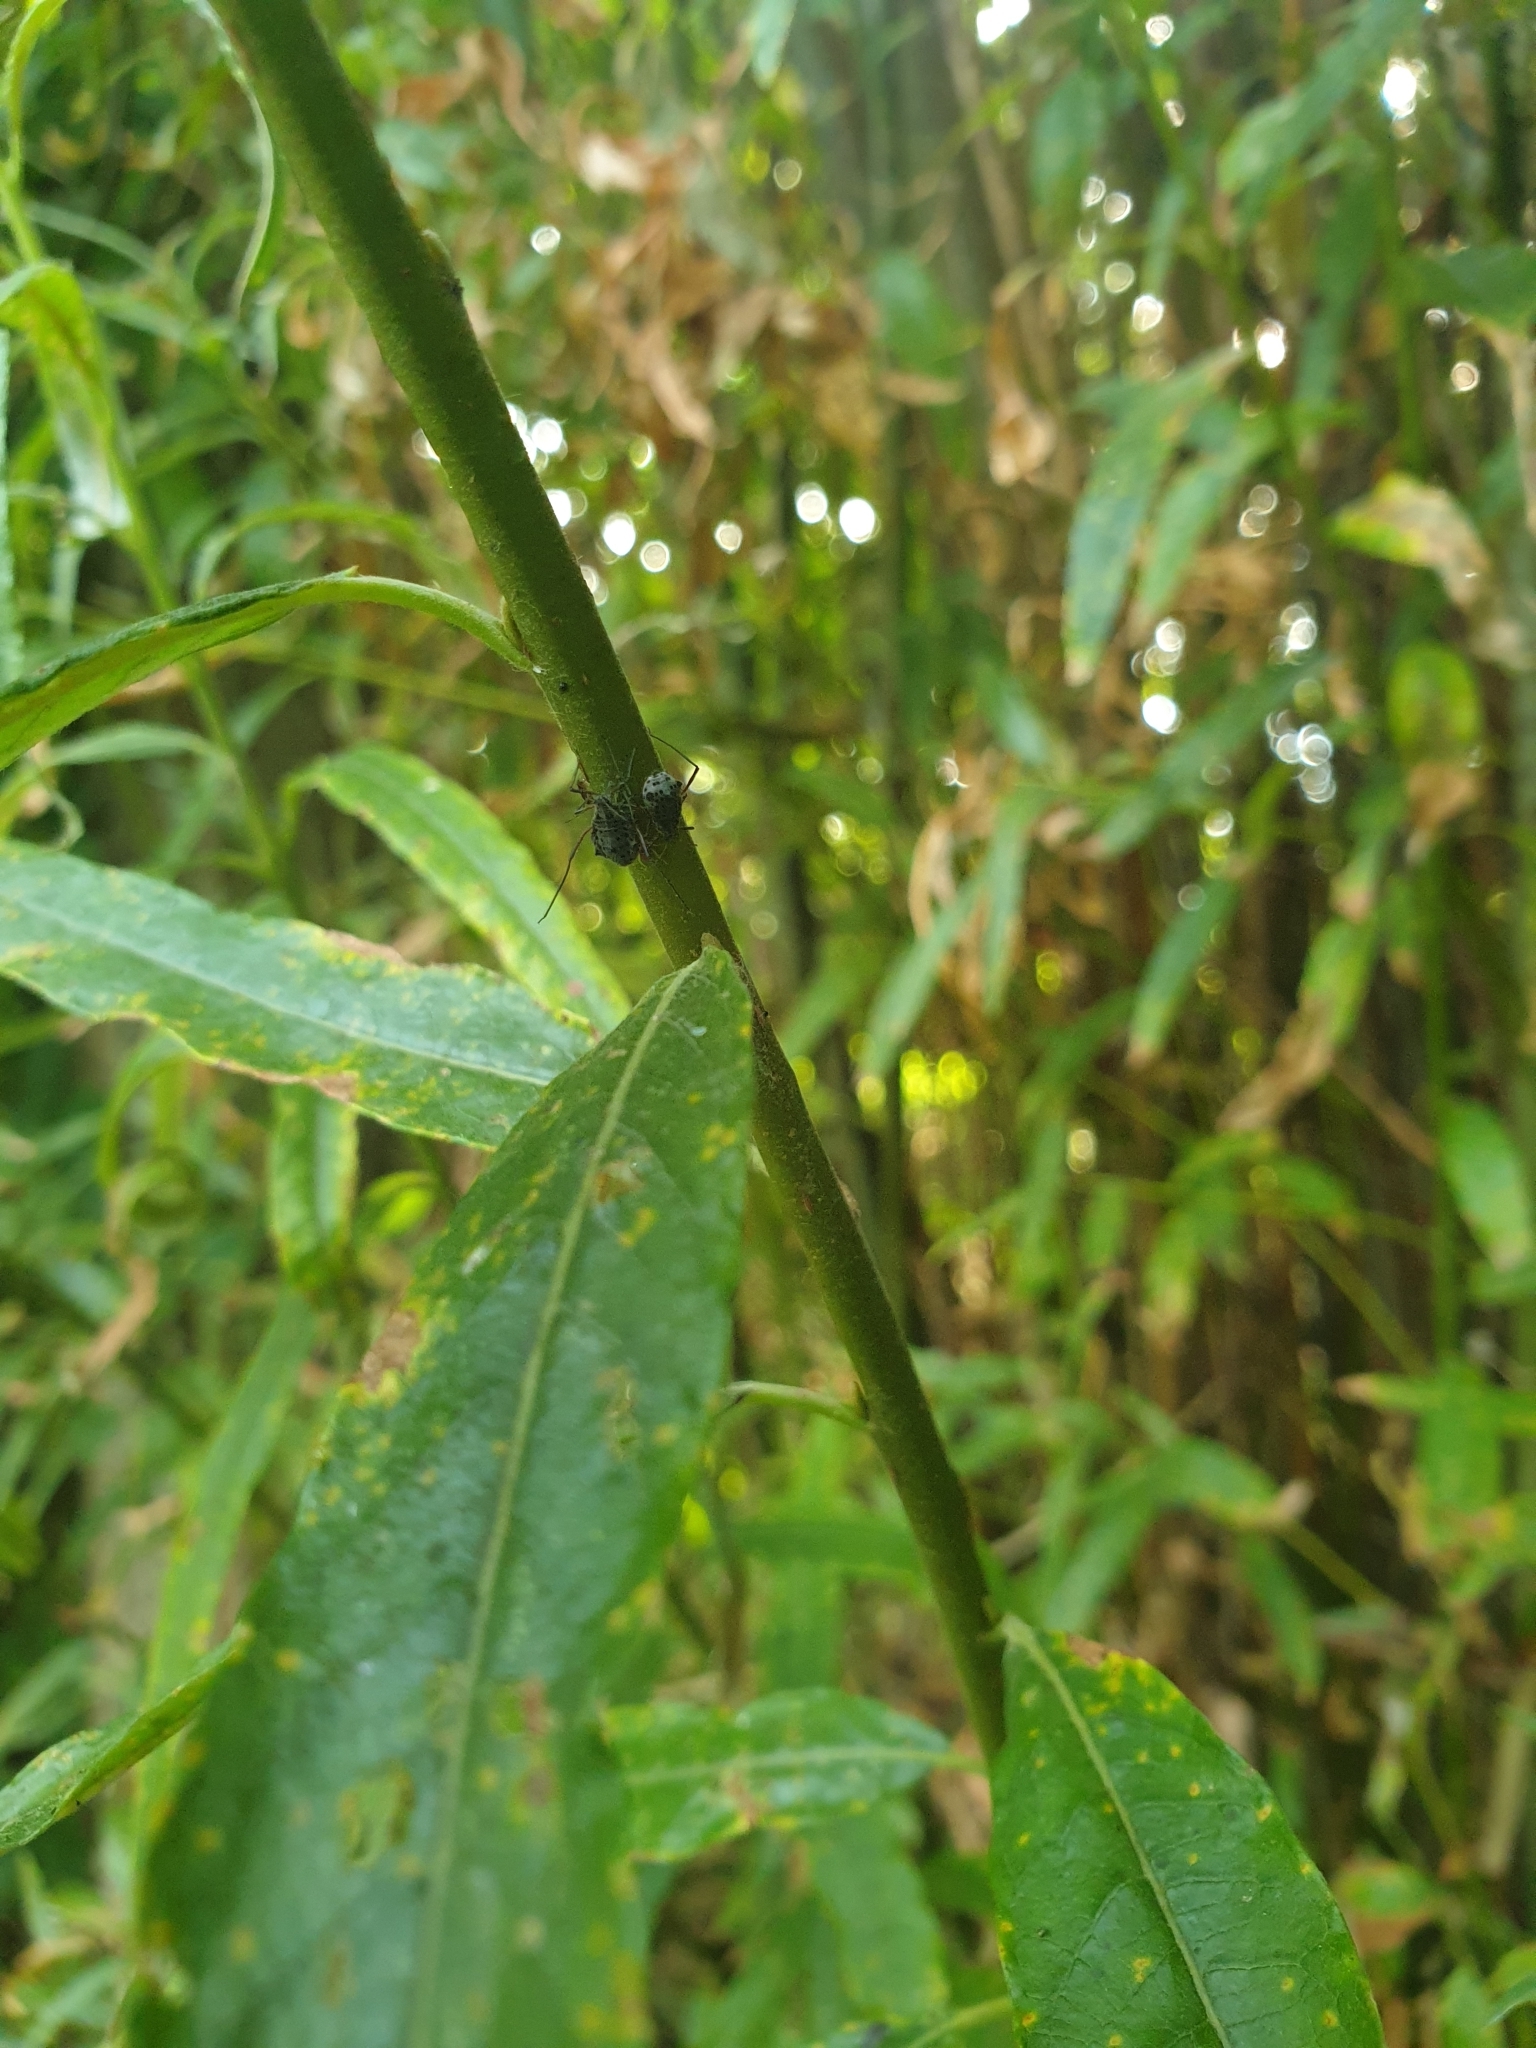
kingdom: Animalia
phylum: Arthropoda
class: Insecta
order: Hemiptera
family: Aphididae
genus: Tuberolachnus
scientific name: Tuberolachnus salignus
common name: Giant willow aphid
